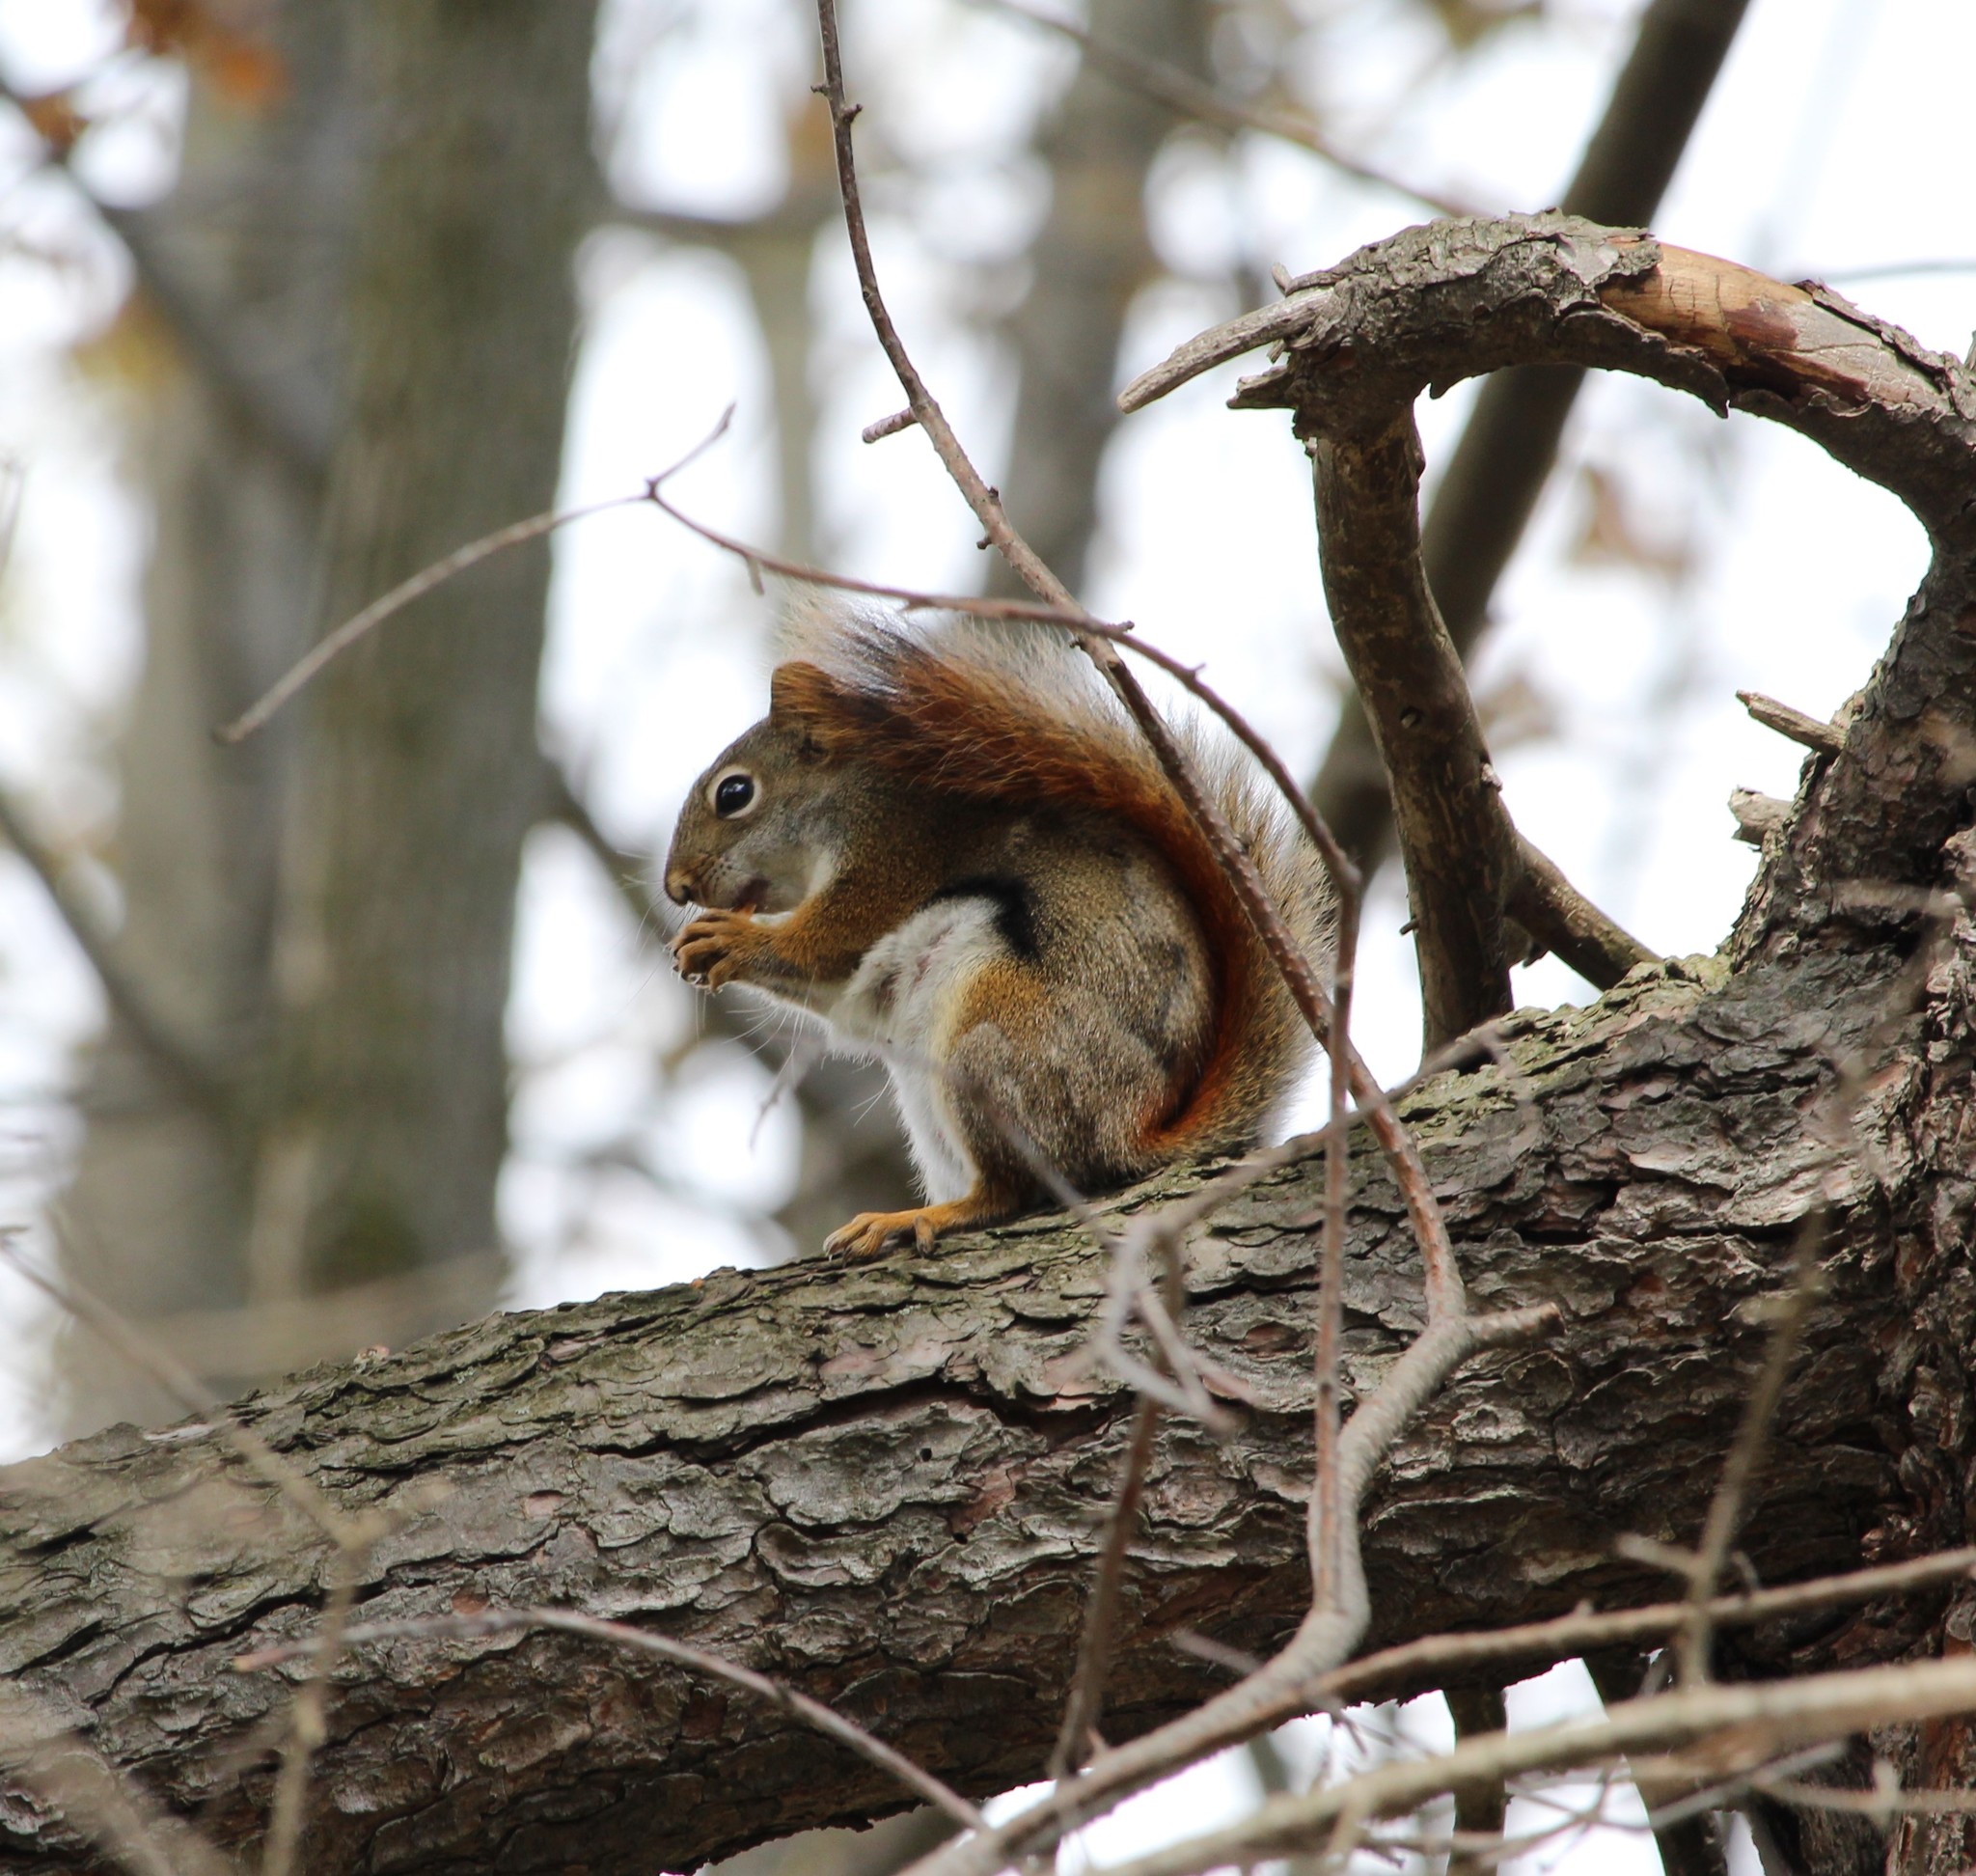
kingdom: Animalia
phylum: Chordata
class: Mammalia
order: Rodentia
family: Sciuridae
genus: Tamiasciurus
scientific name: Tamiasciurus hudsonicus
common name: Red squirrel
